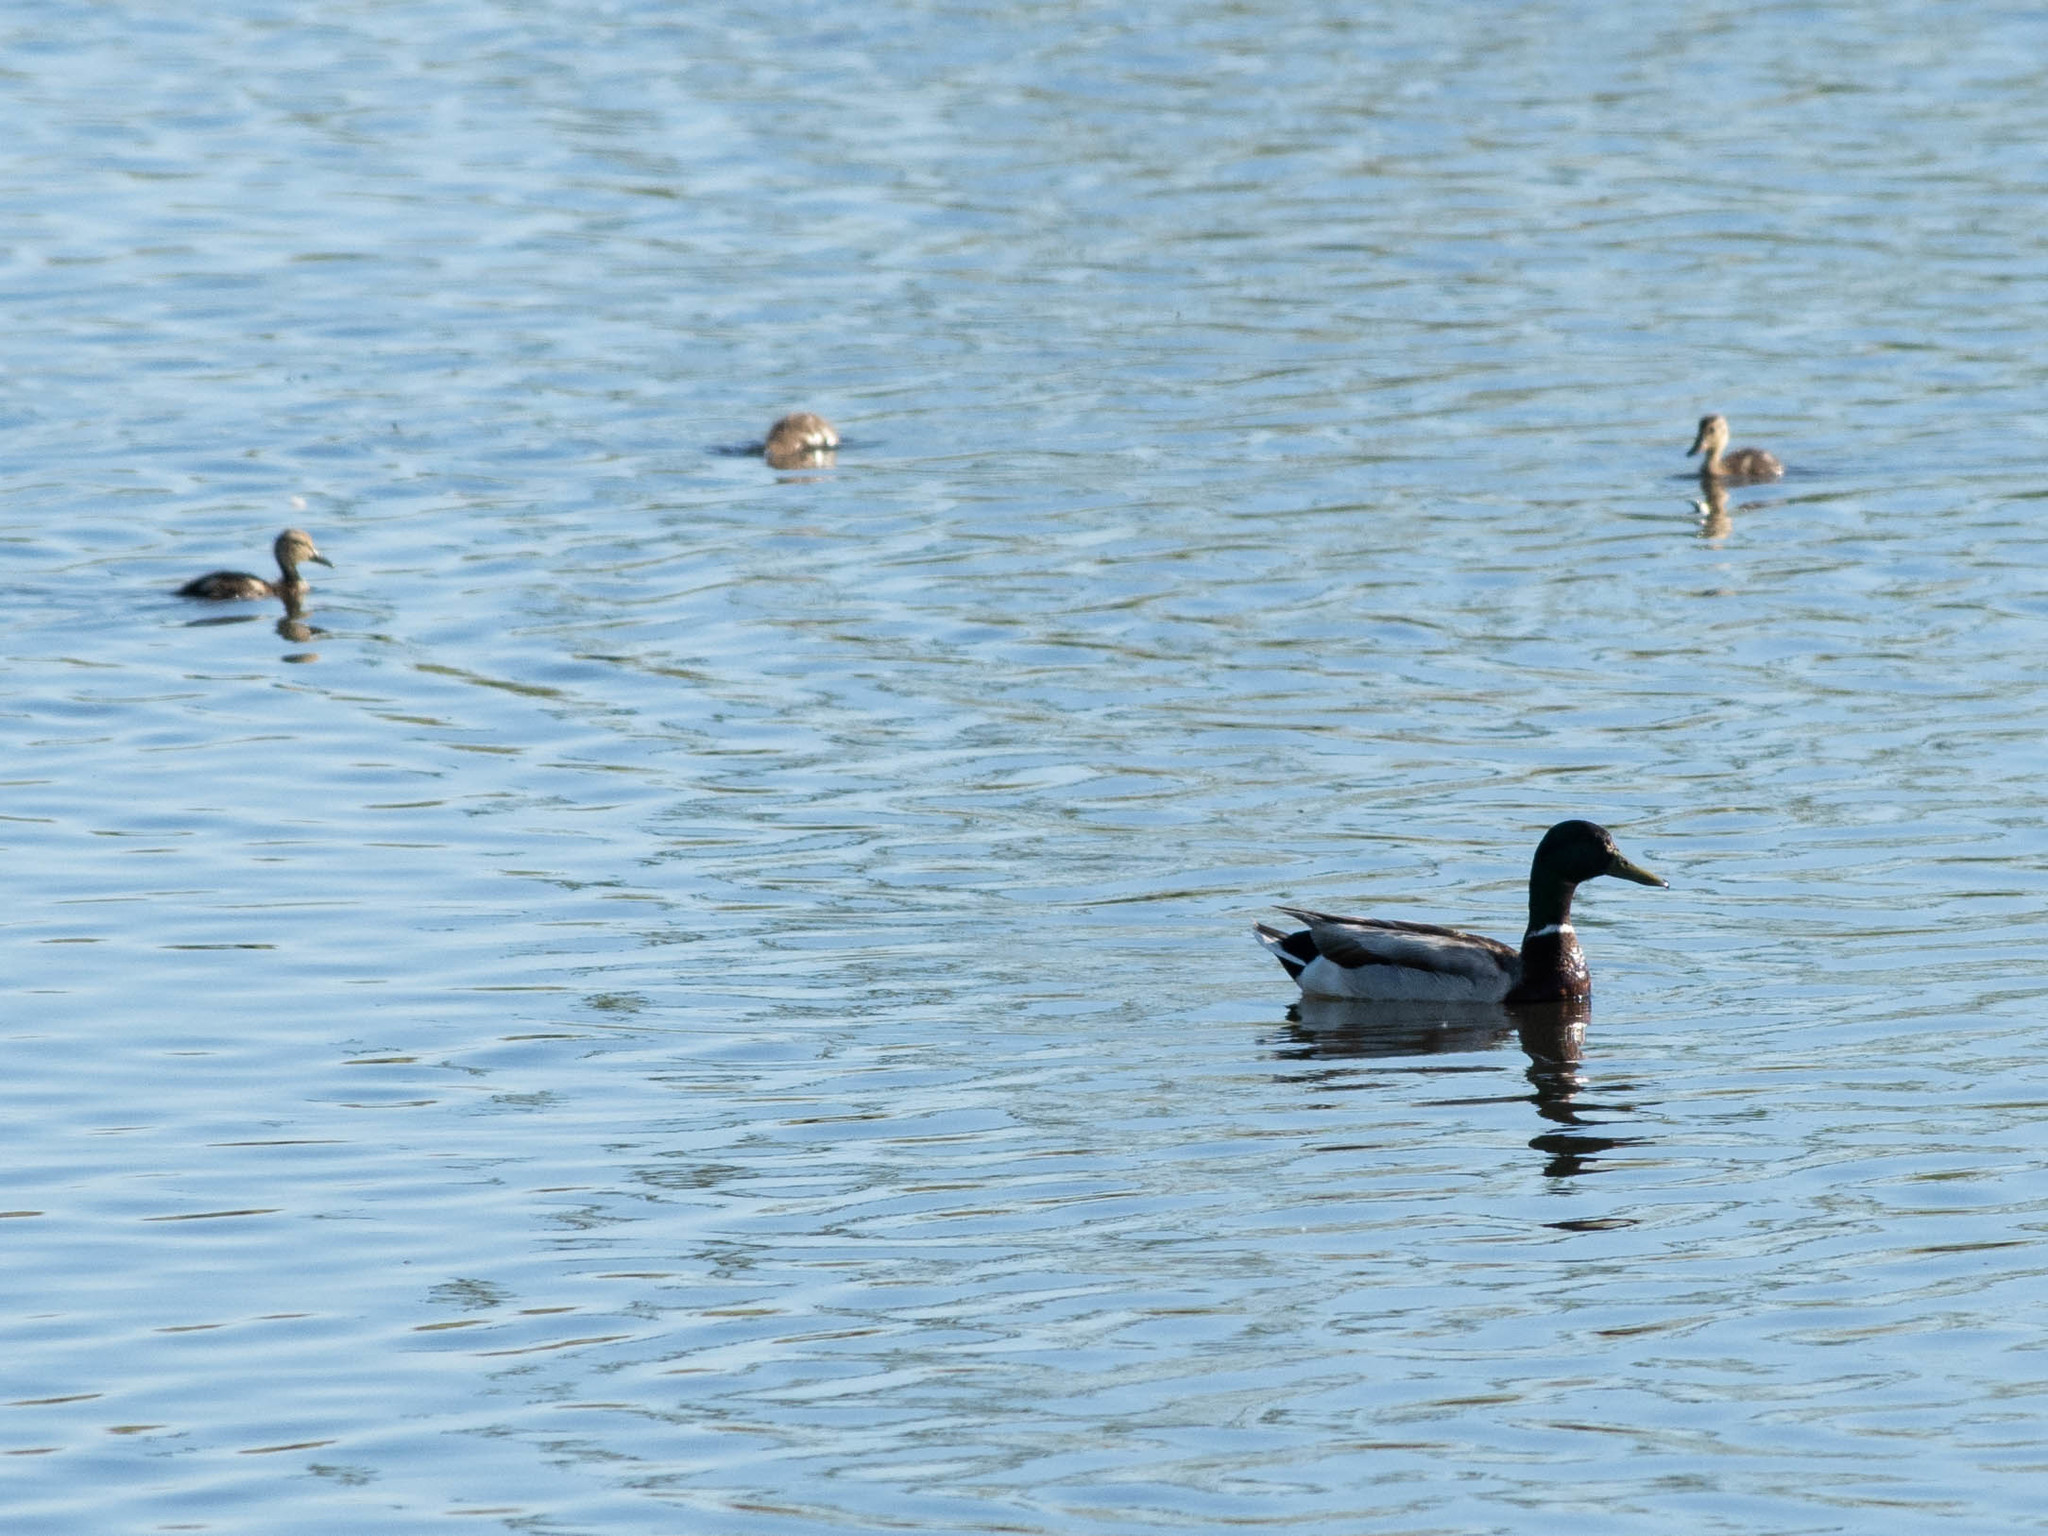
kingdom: Animalia
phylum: Chordata
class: Aves
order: Anseriformes
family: Anatidae
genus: Anas
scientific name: Anas platyrhynchos
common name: Mallard
